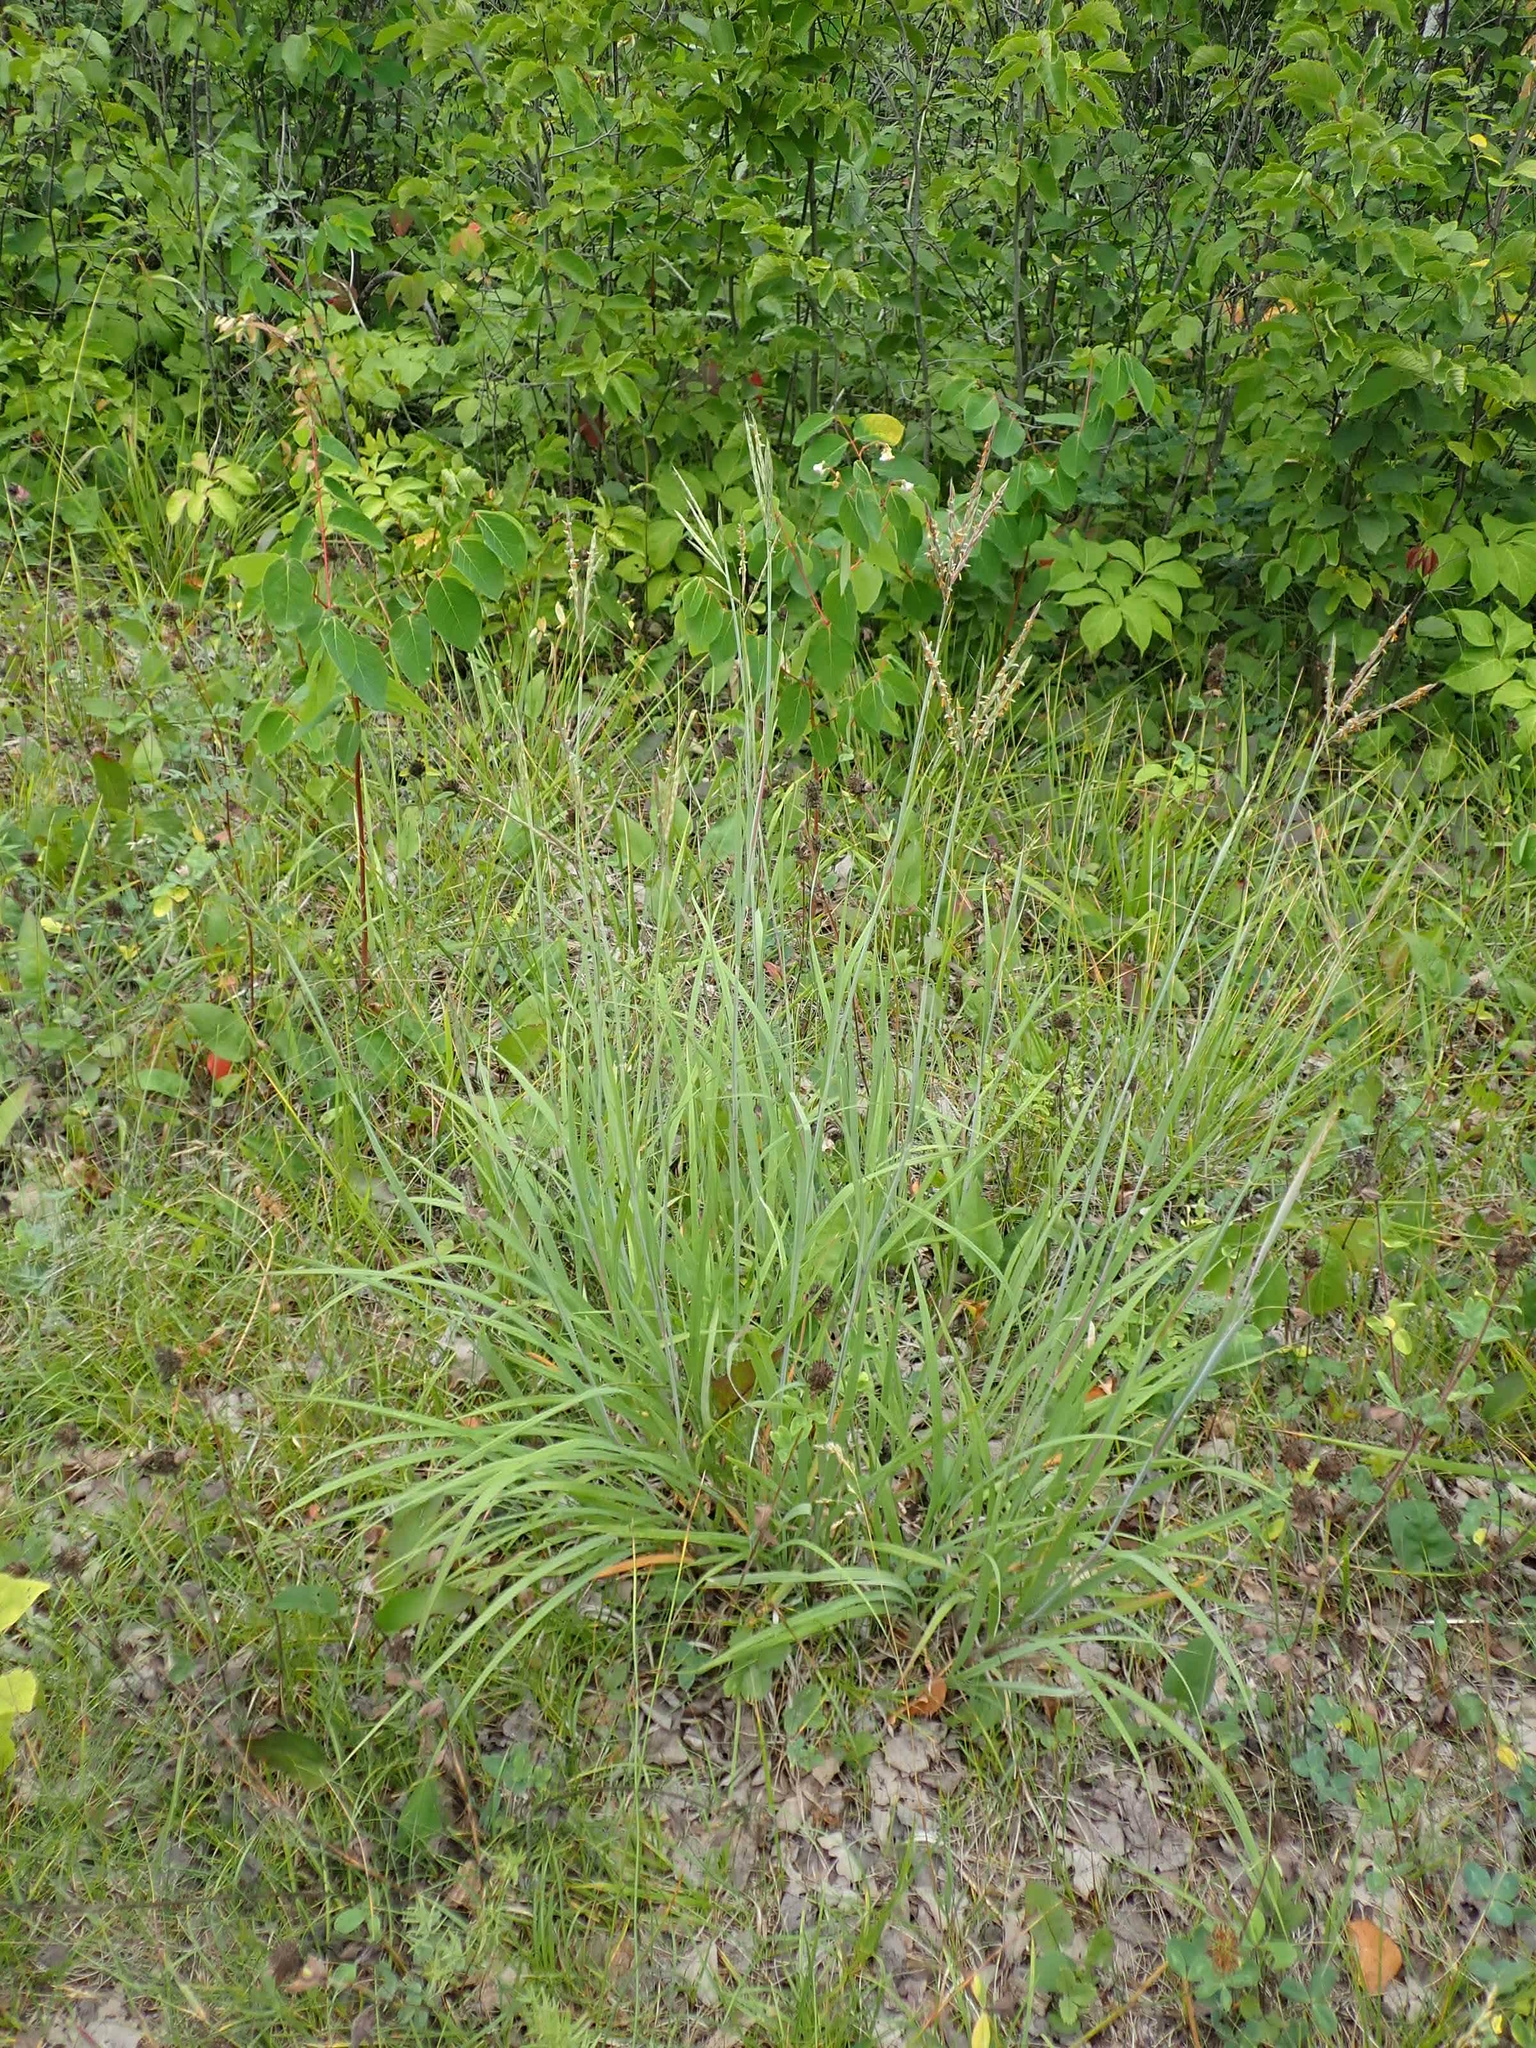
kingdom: Plantae
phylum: Tracheophyta
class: Liliopsida
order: Poales
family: Poaceae
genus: Andropogon
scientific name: Andropogon gerardi
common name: Big bluestem
